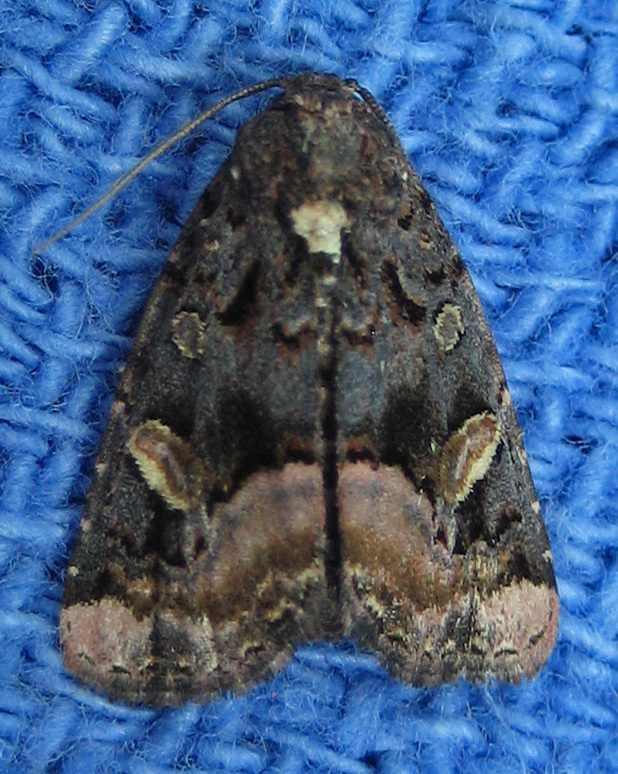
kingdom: Animalia
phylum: Arthropoda
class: Insecta
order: Lepidoptera
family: Noctuidae
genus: Homophoberia
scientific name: Homophoberia apicosa
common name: Black wedge-spot
